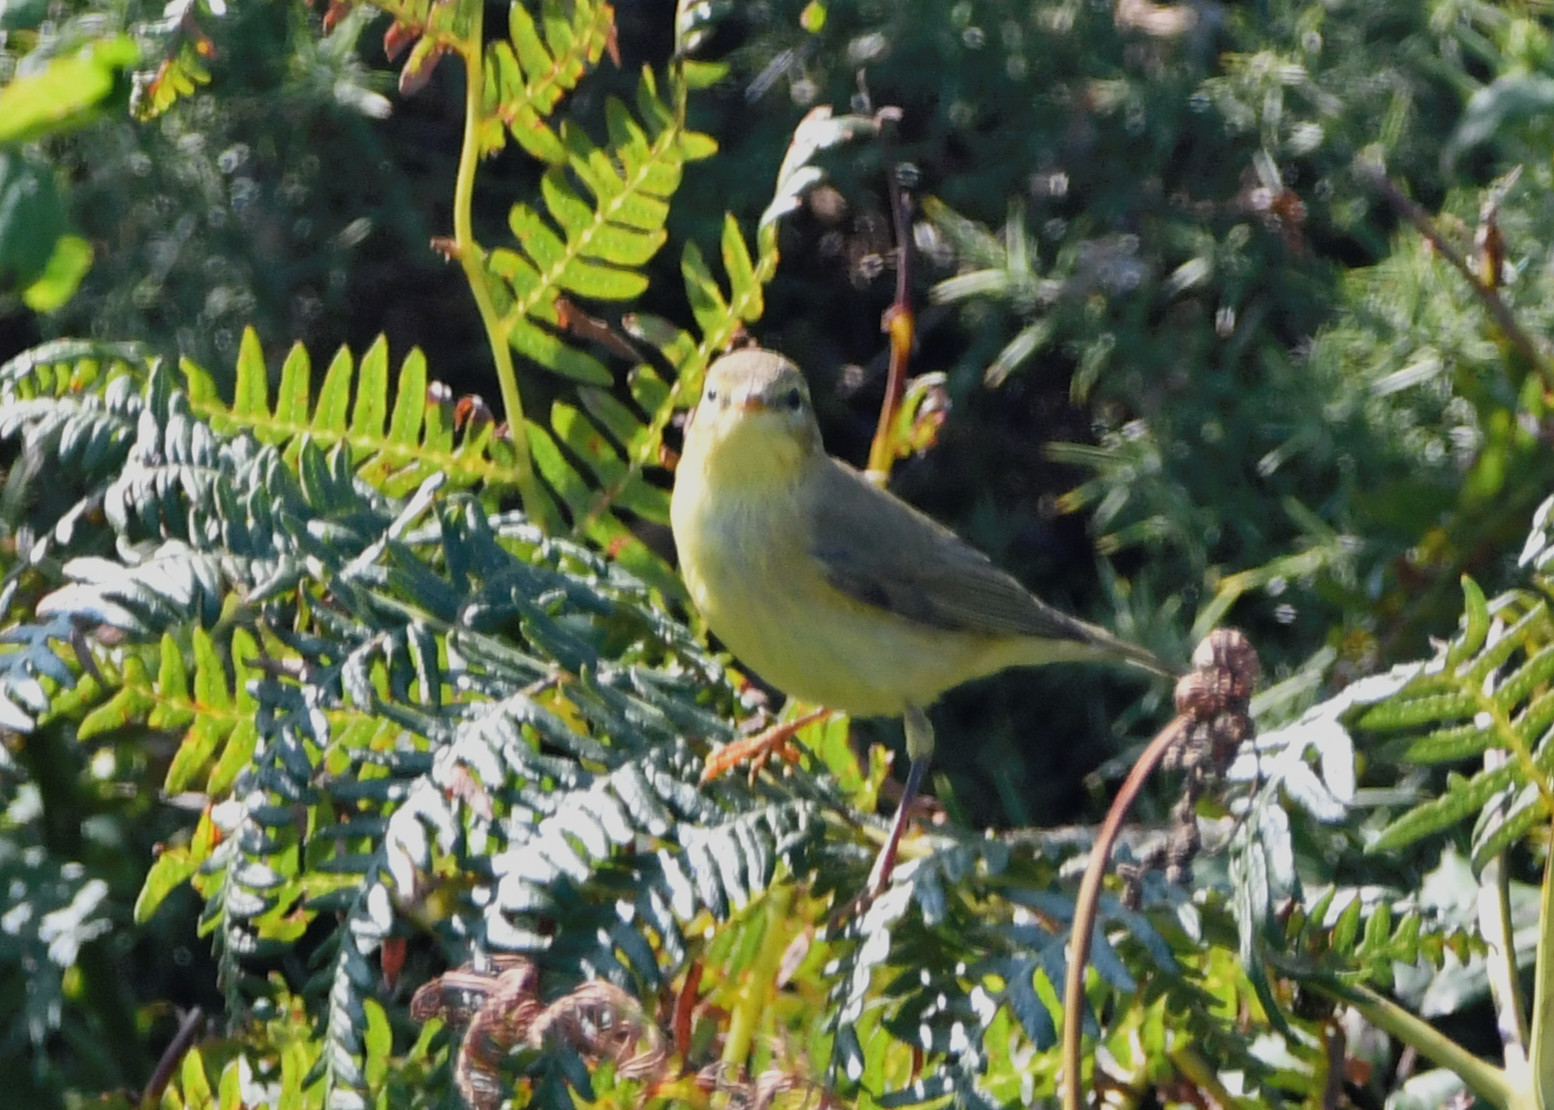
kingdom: Animalia
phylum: Chordata
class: Aves
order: Passeriformes
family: Phylloscopidae
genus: Phylloscopus
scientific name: Phylloscopus trochilus
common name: Willow warbler
